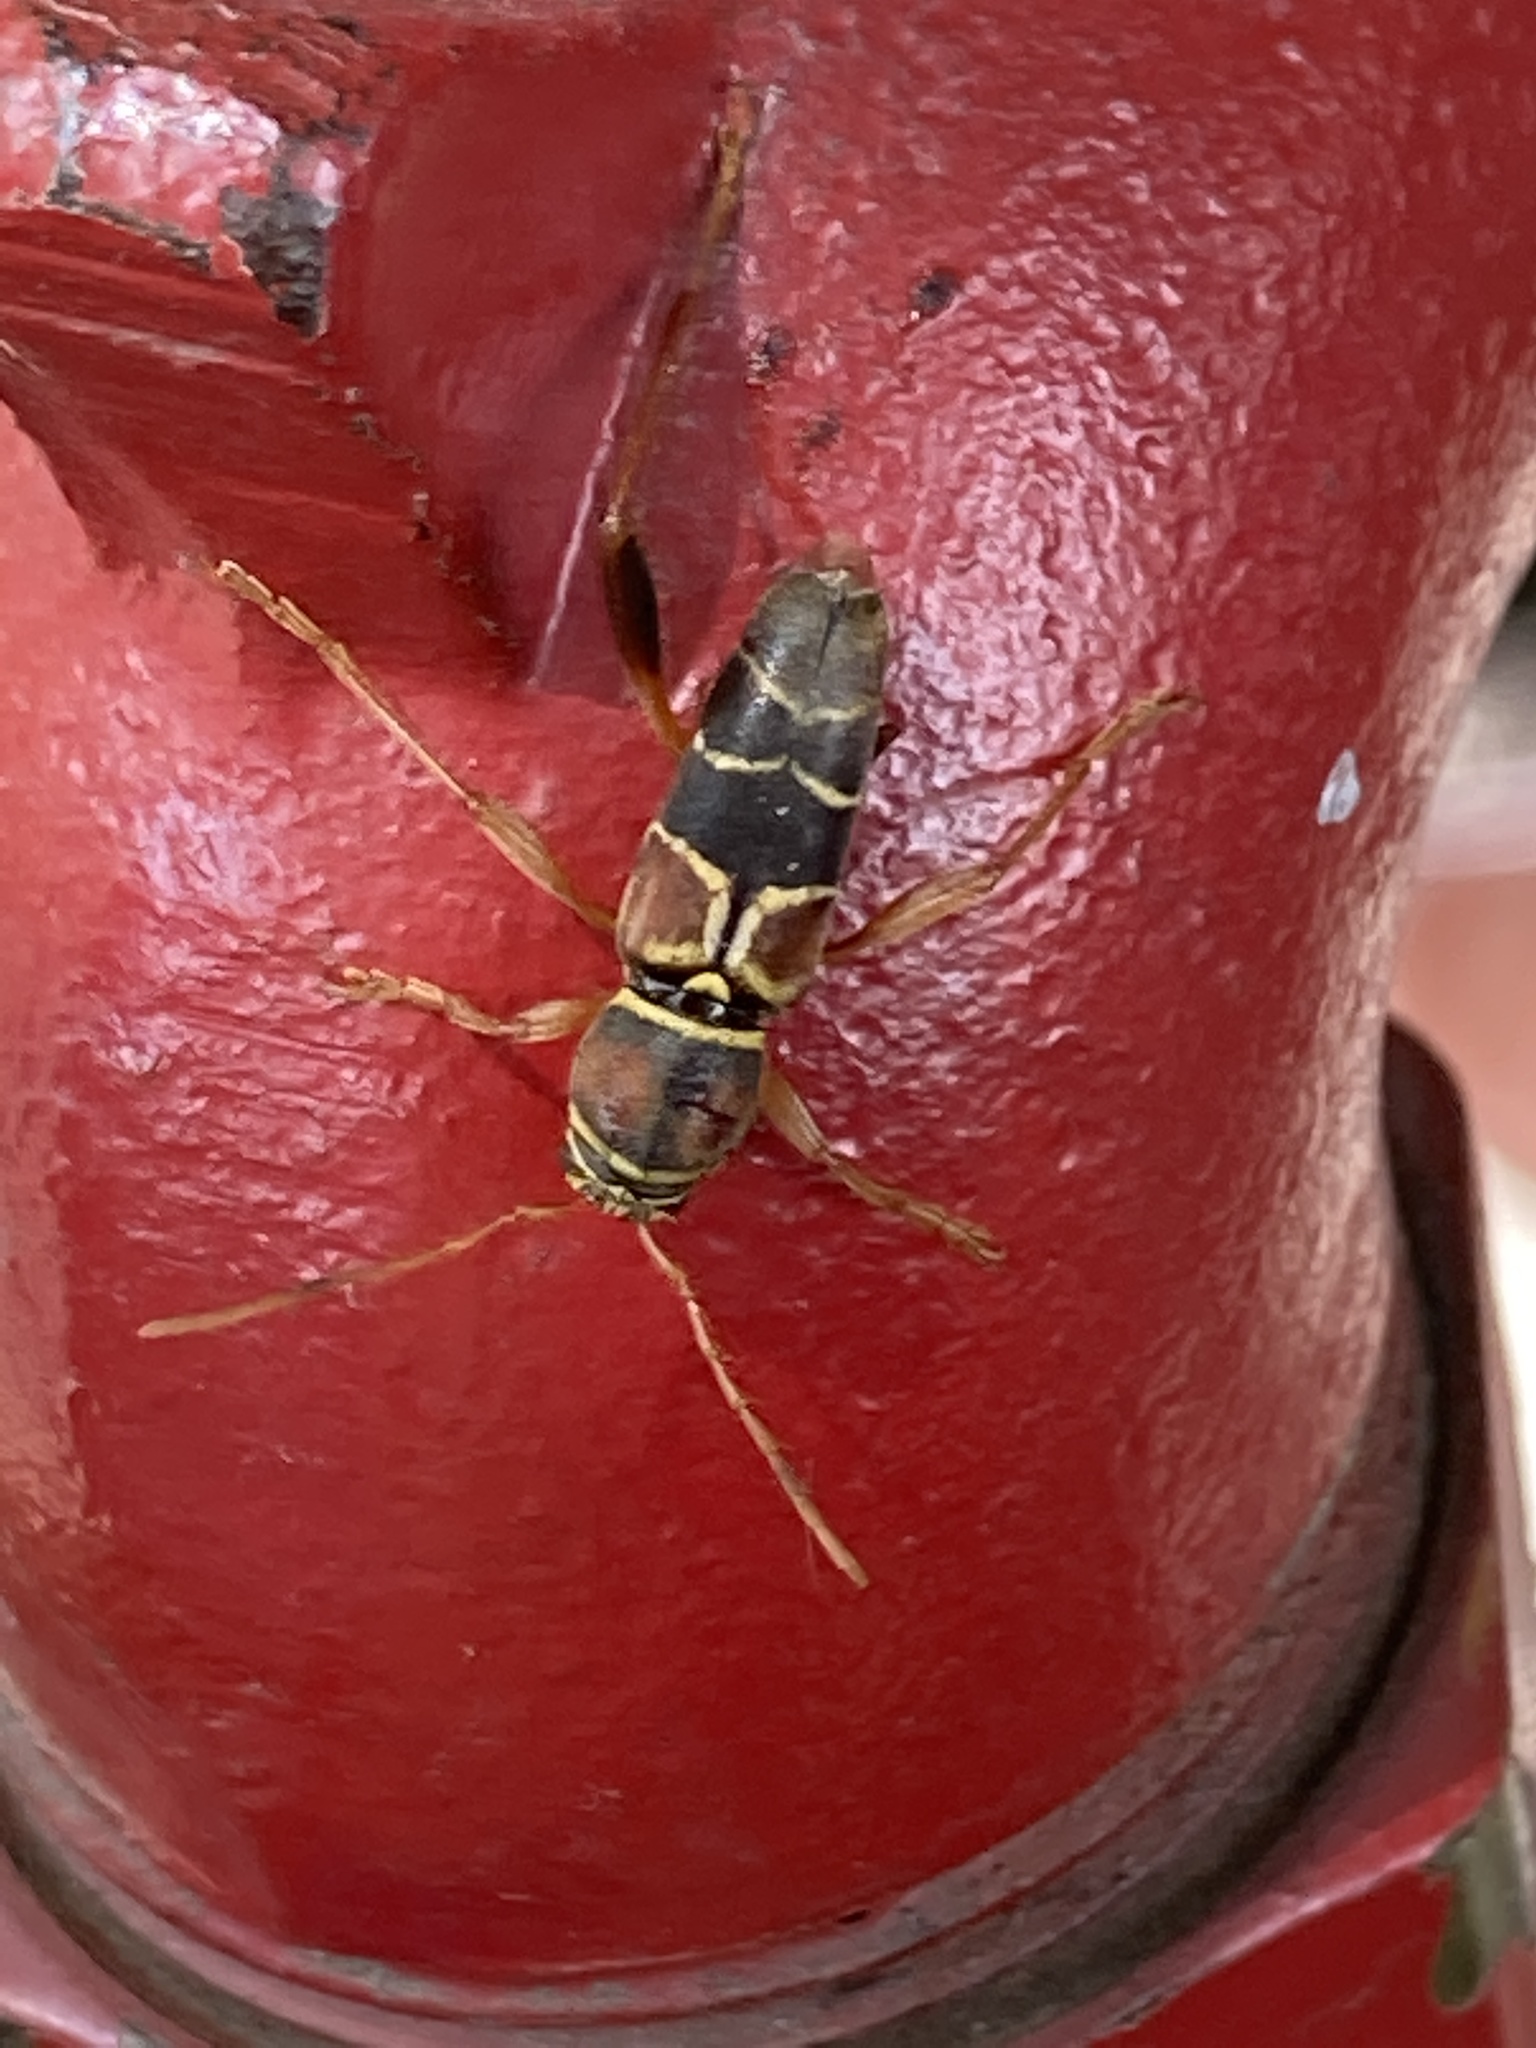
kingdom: Animalia
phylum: Arthropoda
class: Insecta
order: Coleoptera
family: Cerambycidae
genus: Neoclytus
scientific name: Neoclytus mucronatus
